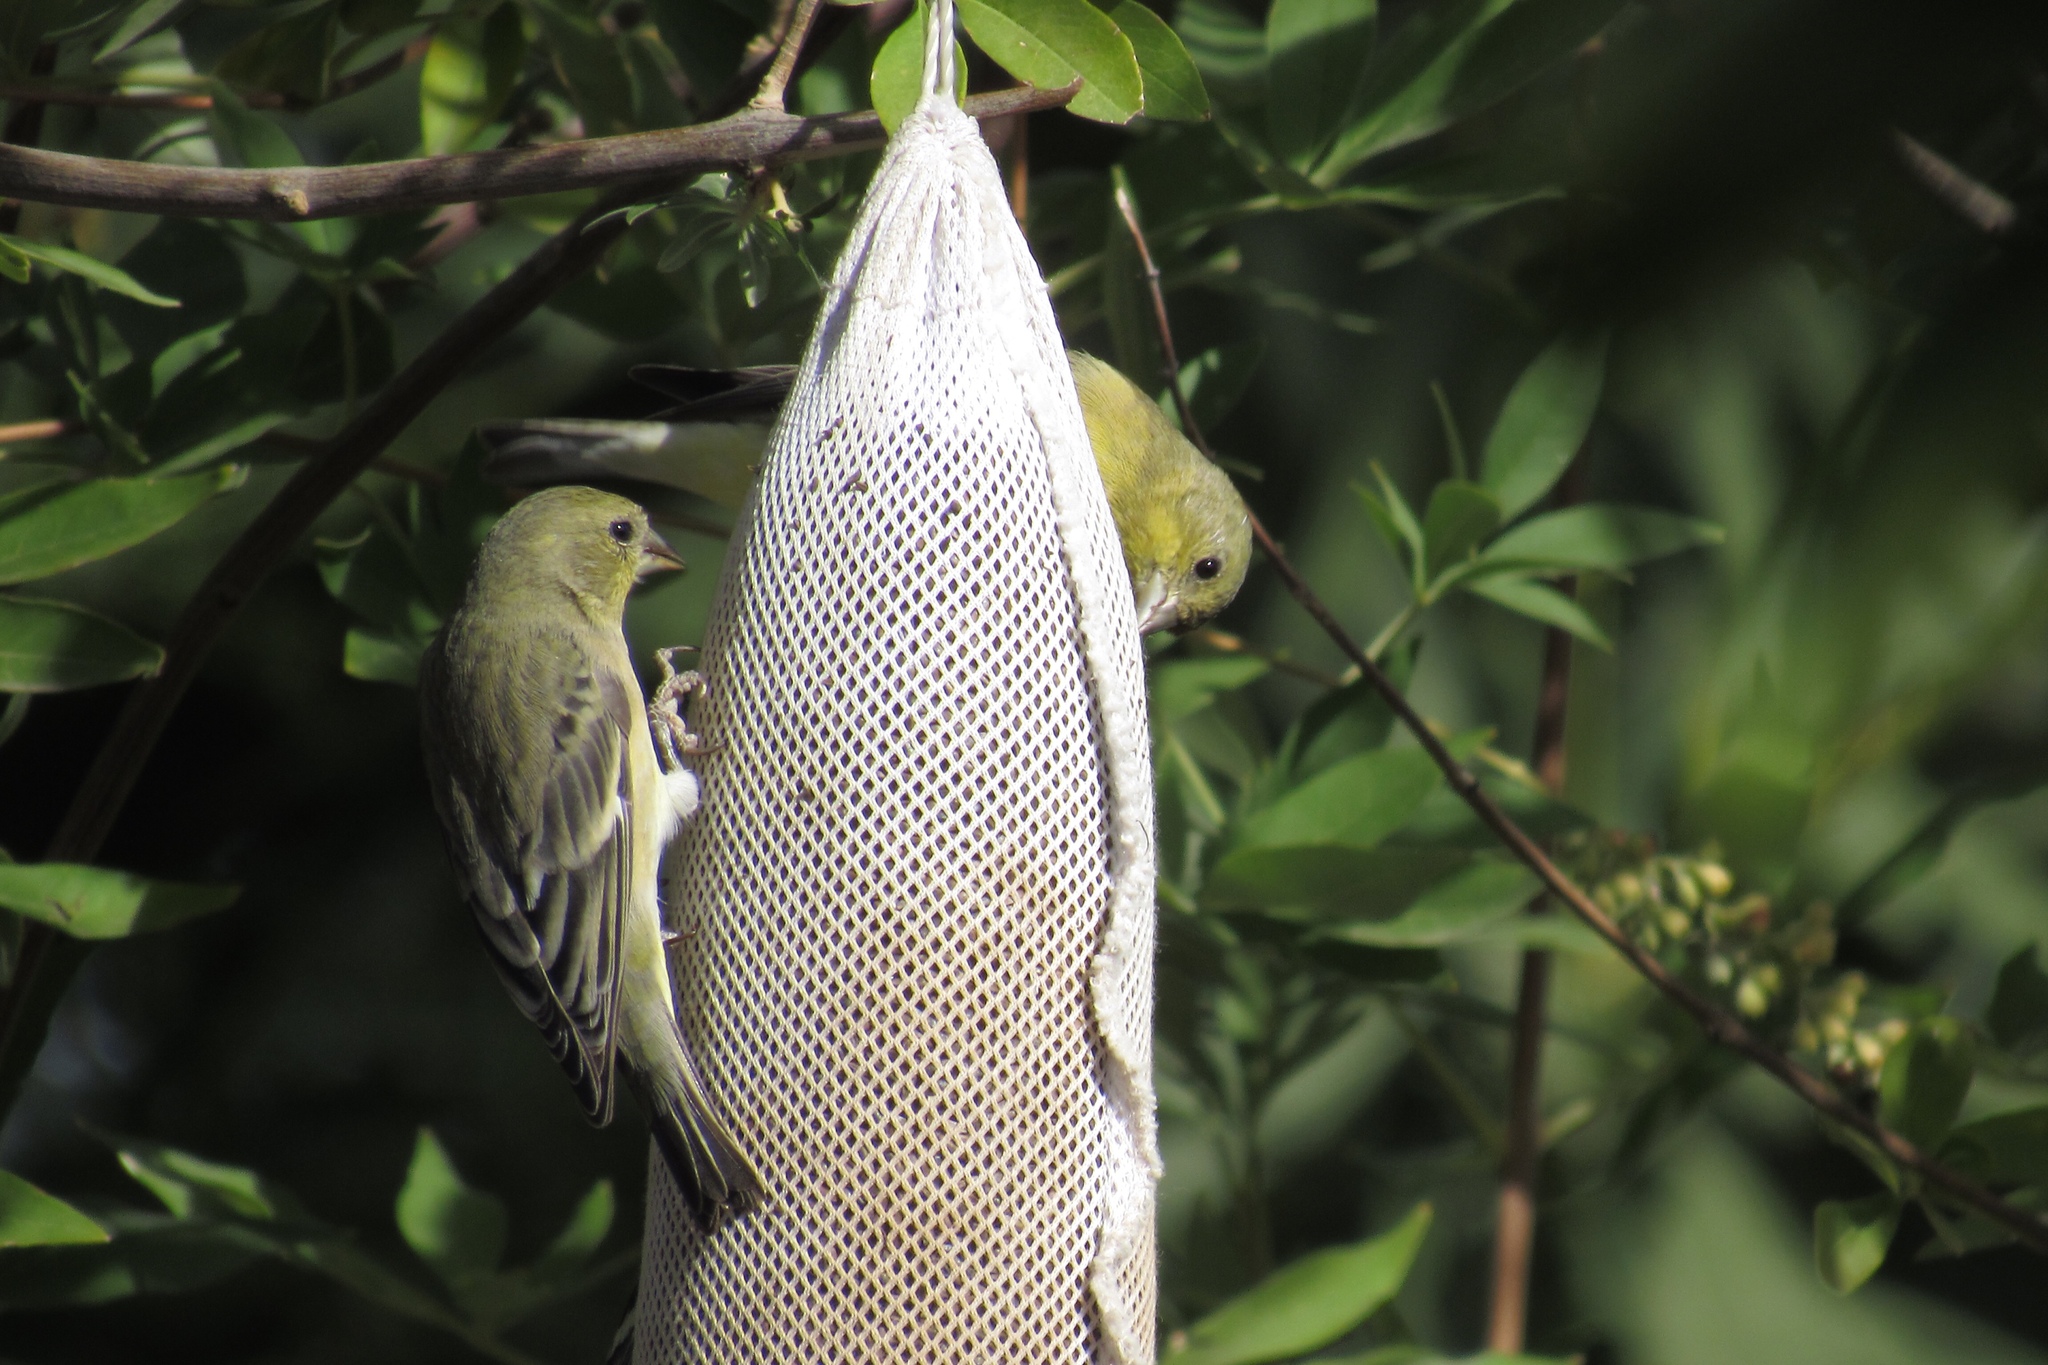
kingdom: Animalia
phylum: Chordata
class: Aves
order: Passeriformes
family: Fringillidae
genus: Spinus
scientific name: Spinus psaltria
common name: Lesser goldfinch
